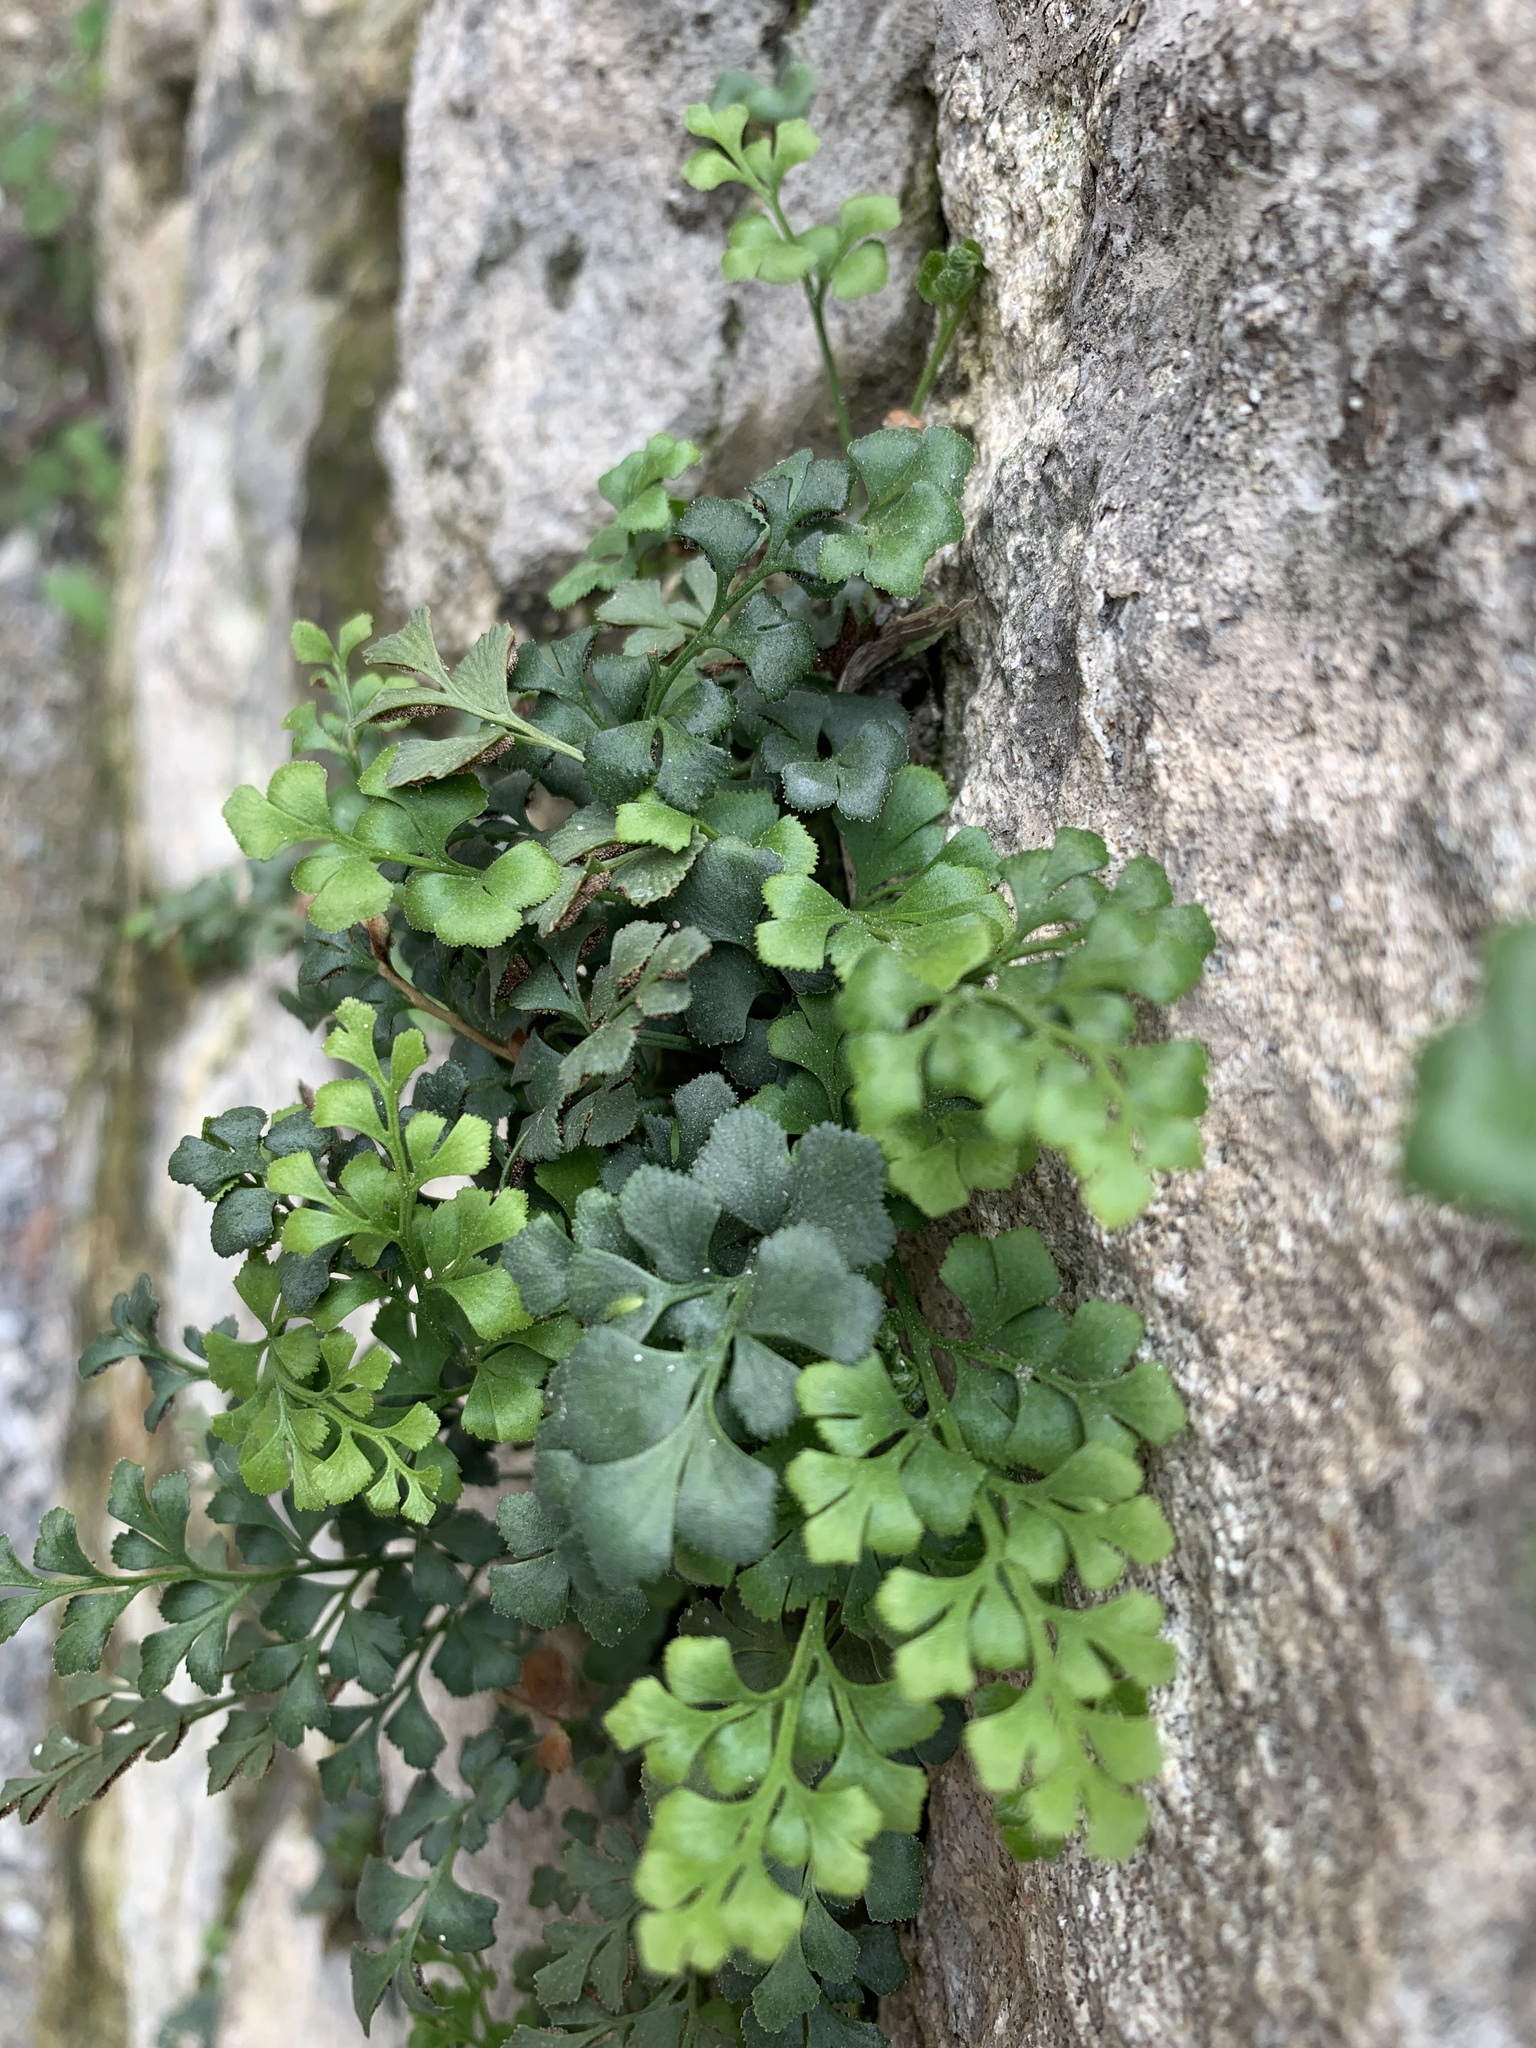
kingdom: Plantae
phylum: Tracheophyta
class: Polypodiopsida
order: Polypodiales
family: Aspleniaceae
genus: Asplenium
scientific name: Asplenium ruta-muraria
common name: Wall-rue
